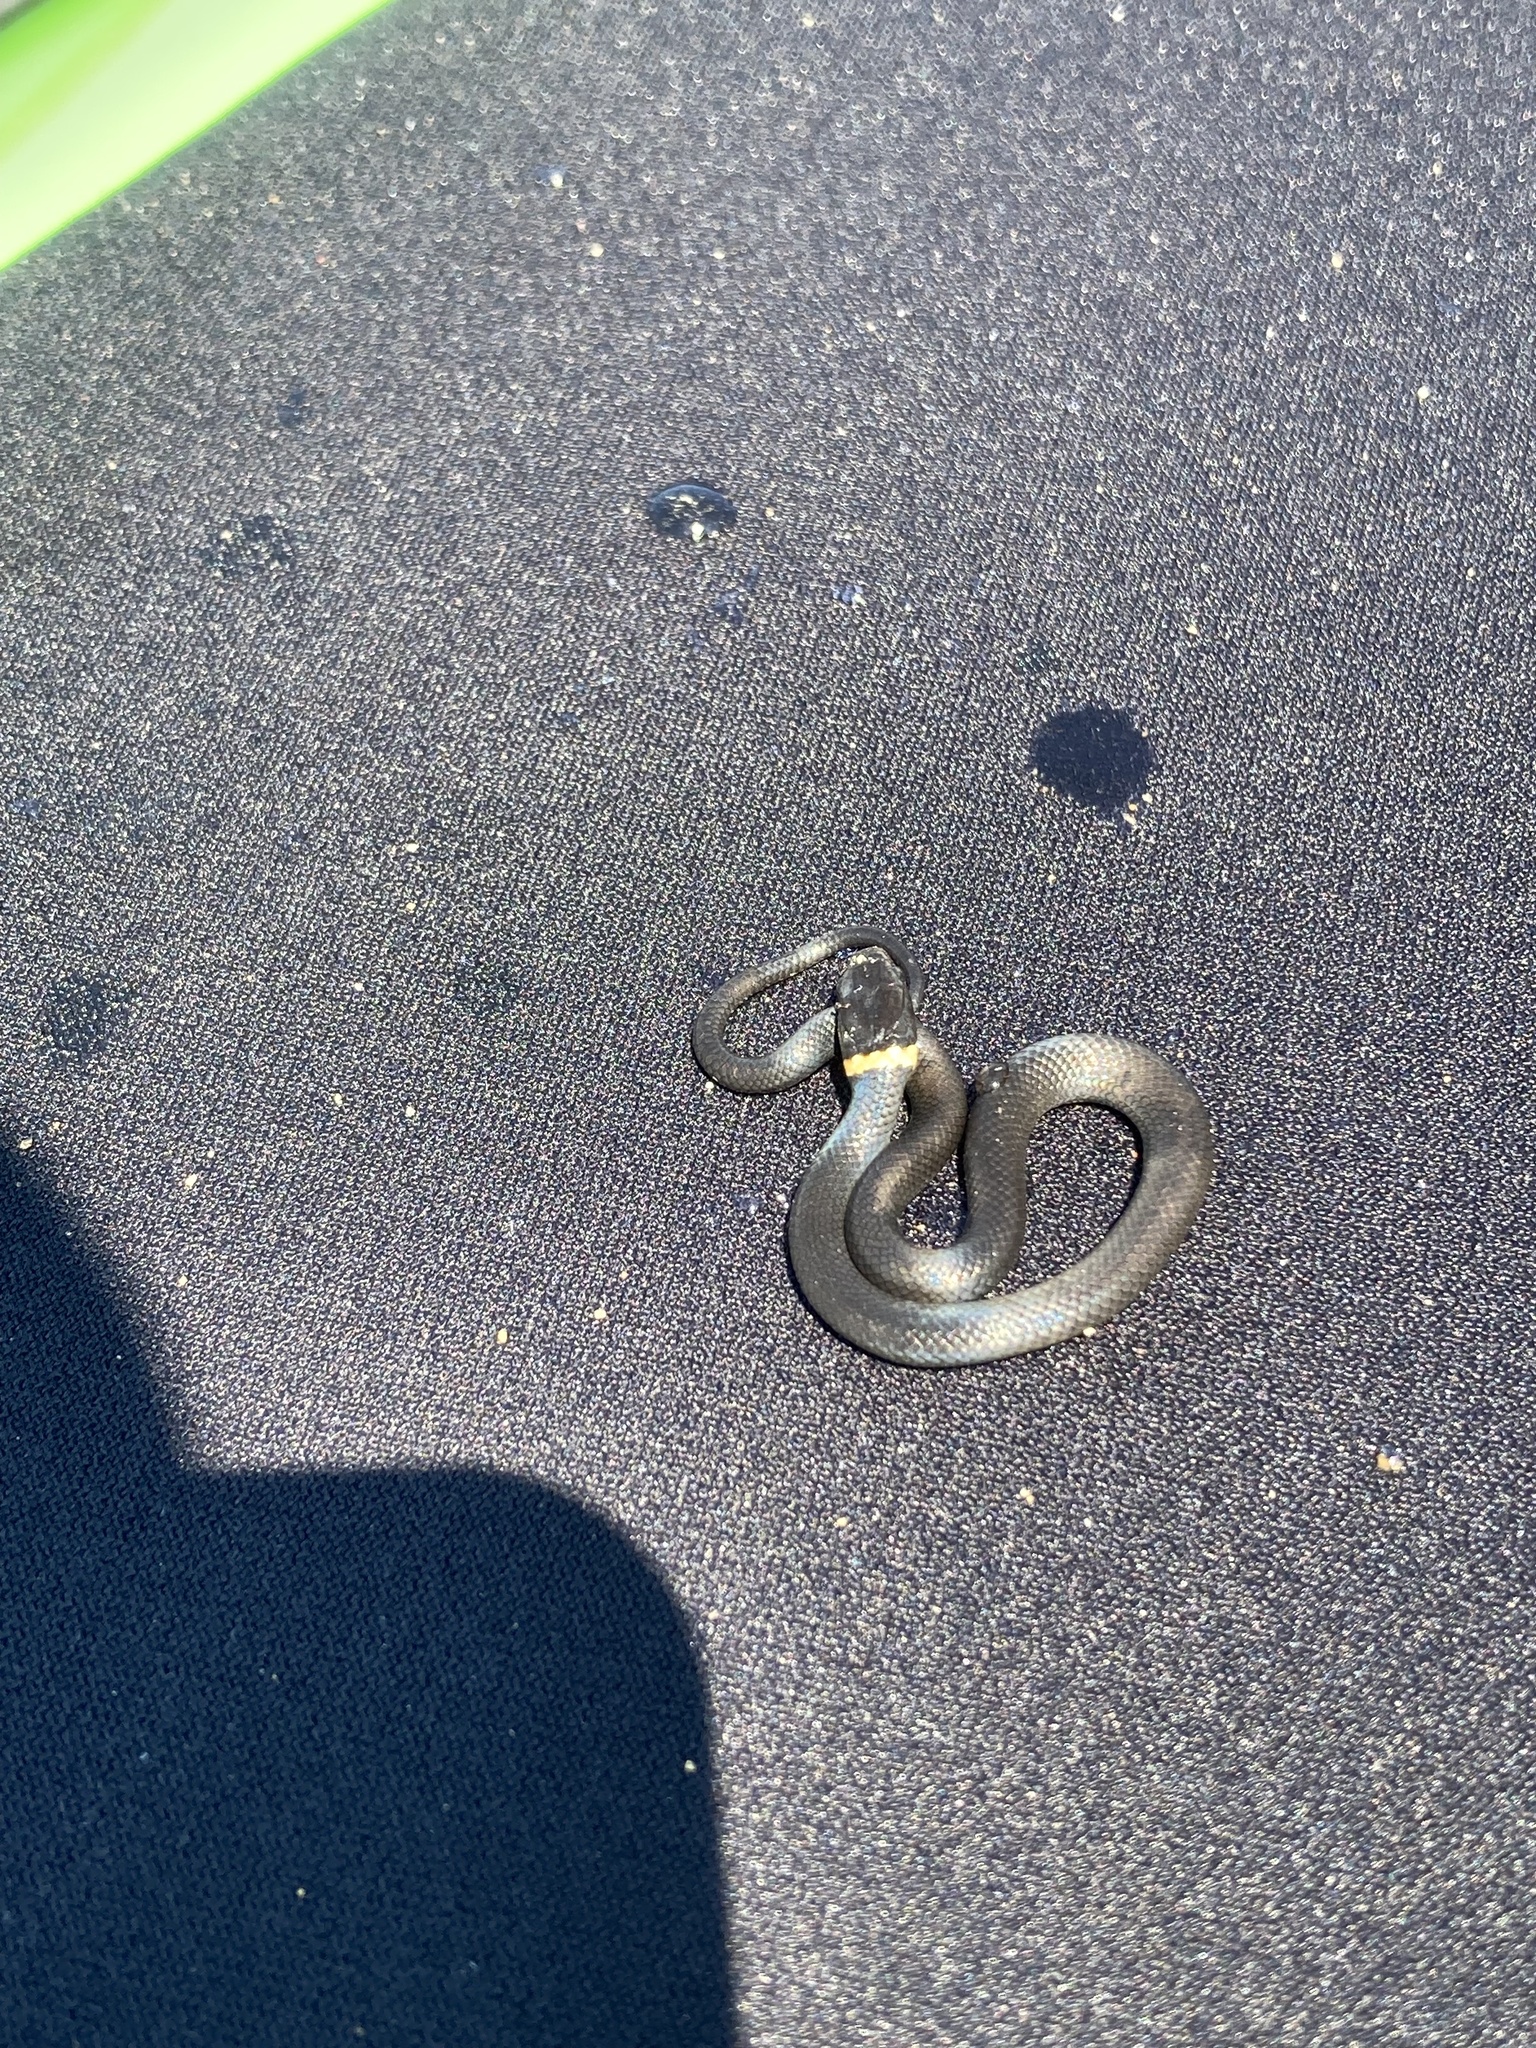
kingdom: Animalia
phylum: Chordata
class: Squamata
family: Colubridae
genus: Diadophis
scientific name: Diadophis punctatus
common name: Ringneck snake
